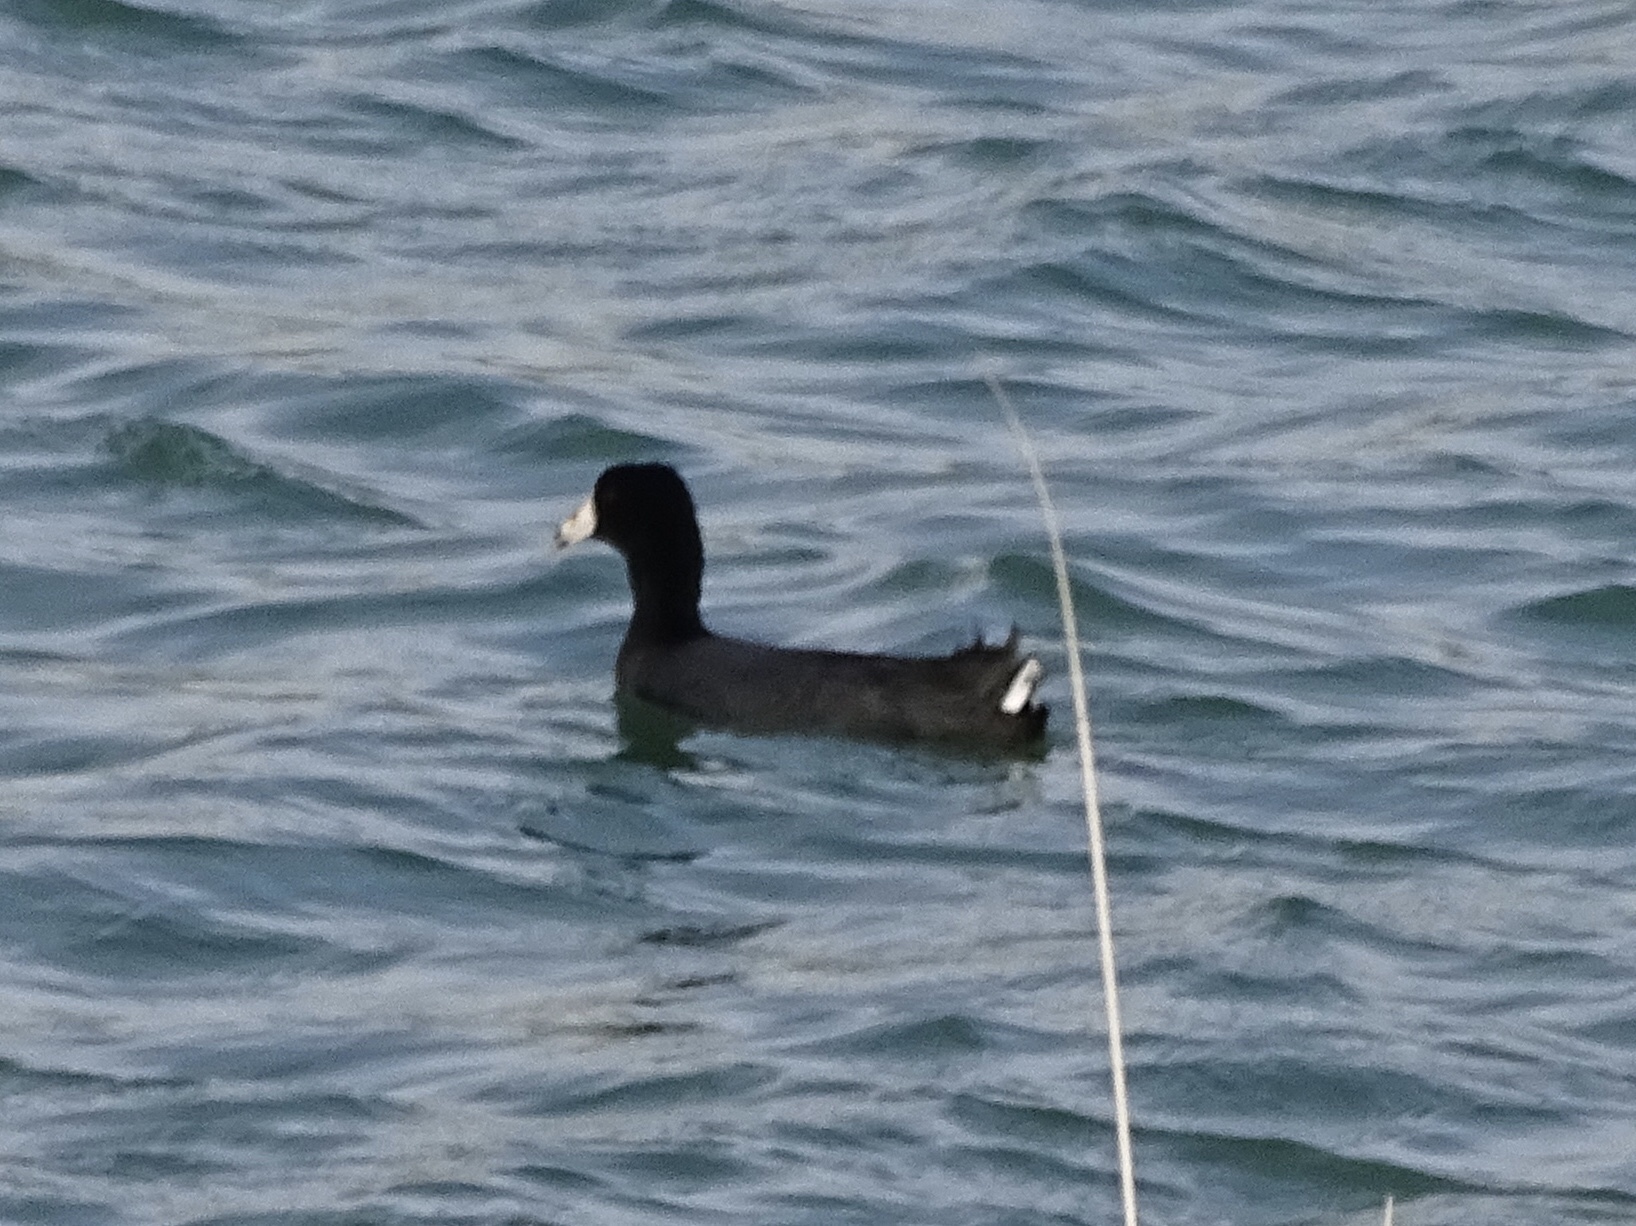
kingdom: Animalia
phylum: Chordata
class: Aves
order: Gruiformes
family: Rallidae
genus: Fulica
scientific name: Fulica americana
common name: American coot
